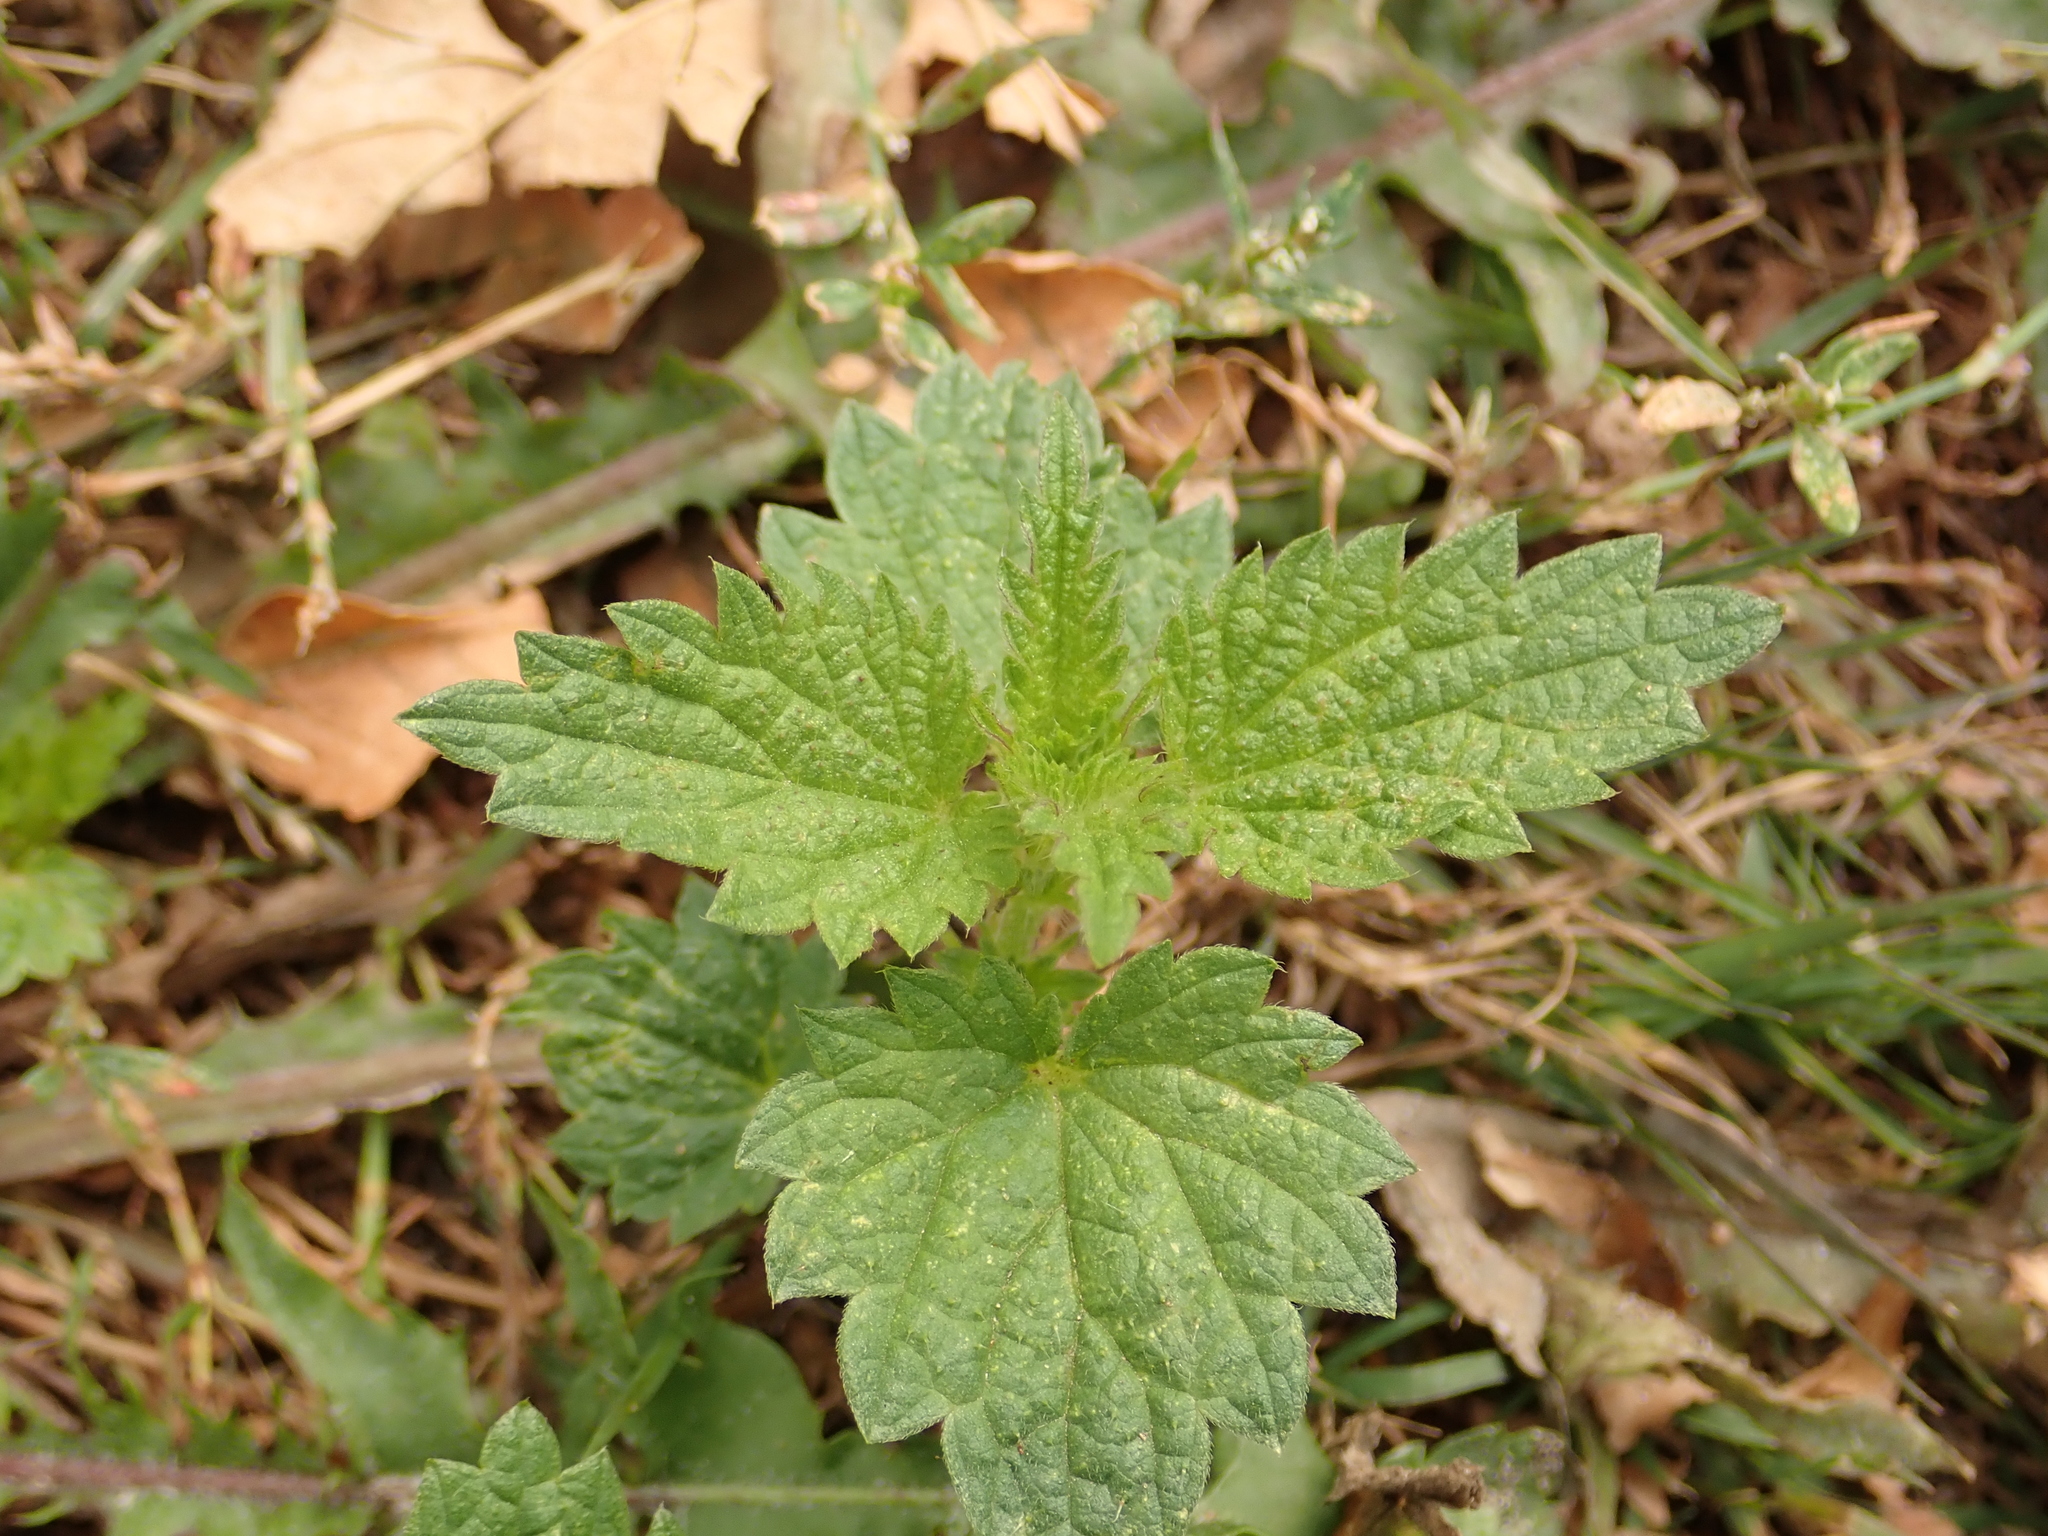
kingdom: Plantae
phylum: Tracheophyta
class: Magnoliopsida
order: Rosales
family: Urticaceae
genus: Urtica
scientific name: Urtica dioica
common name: Common nettle
